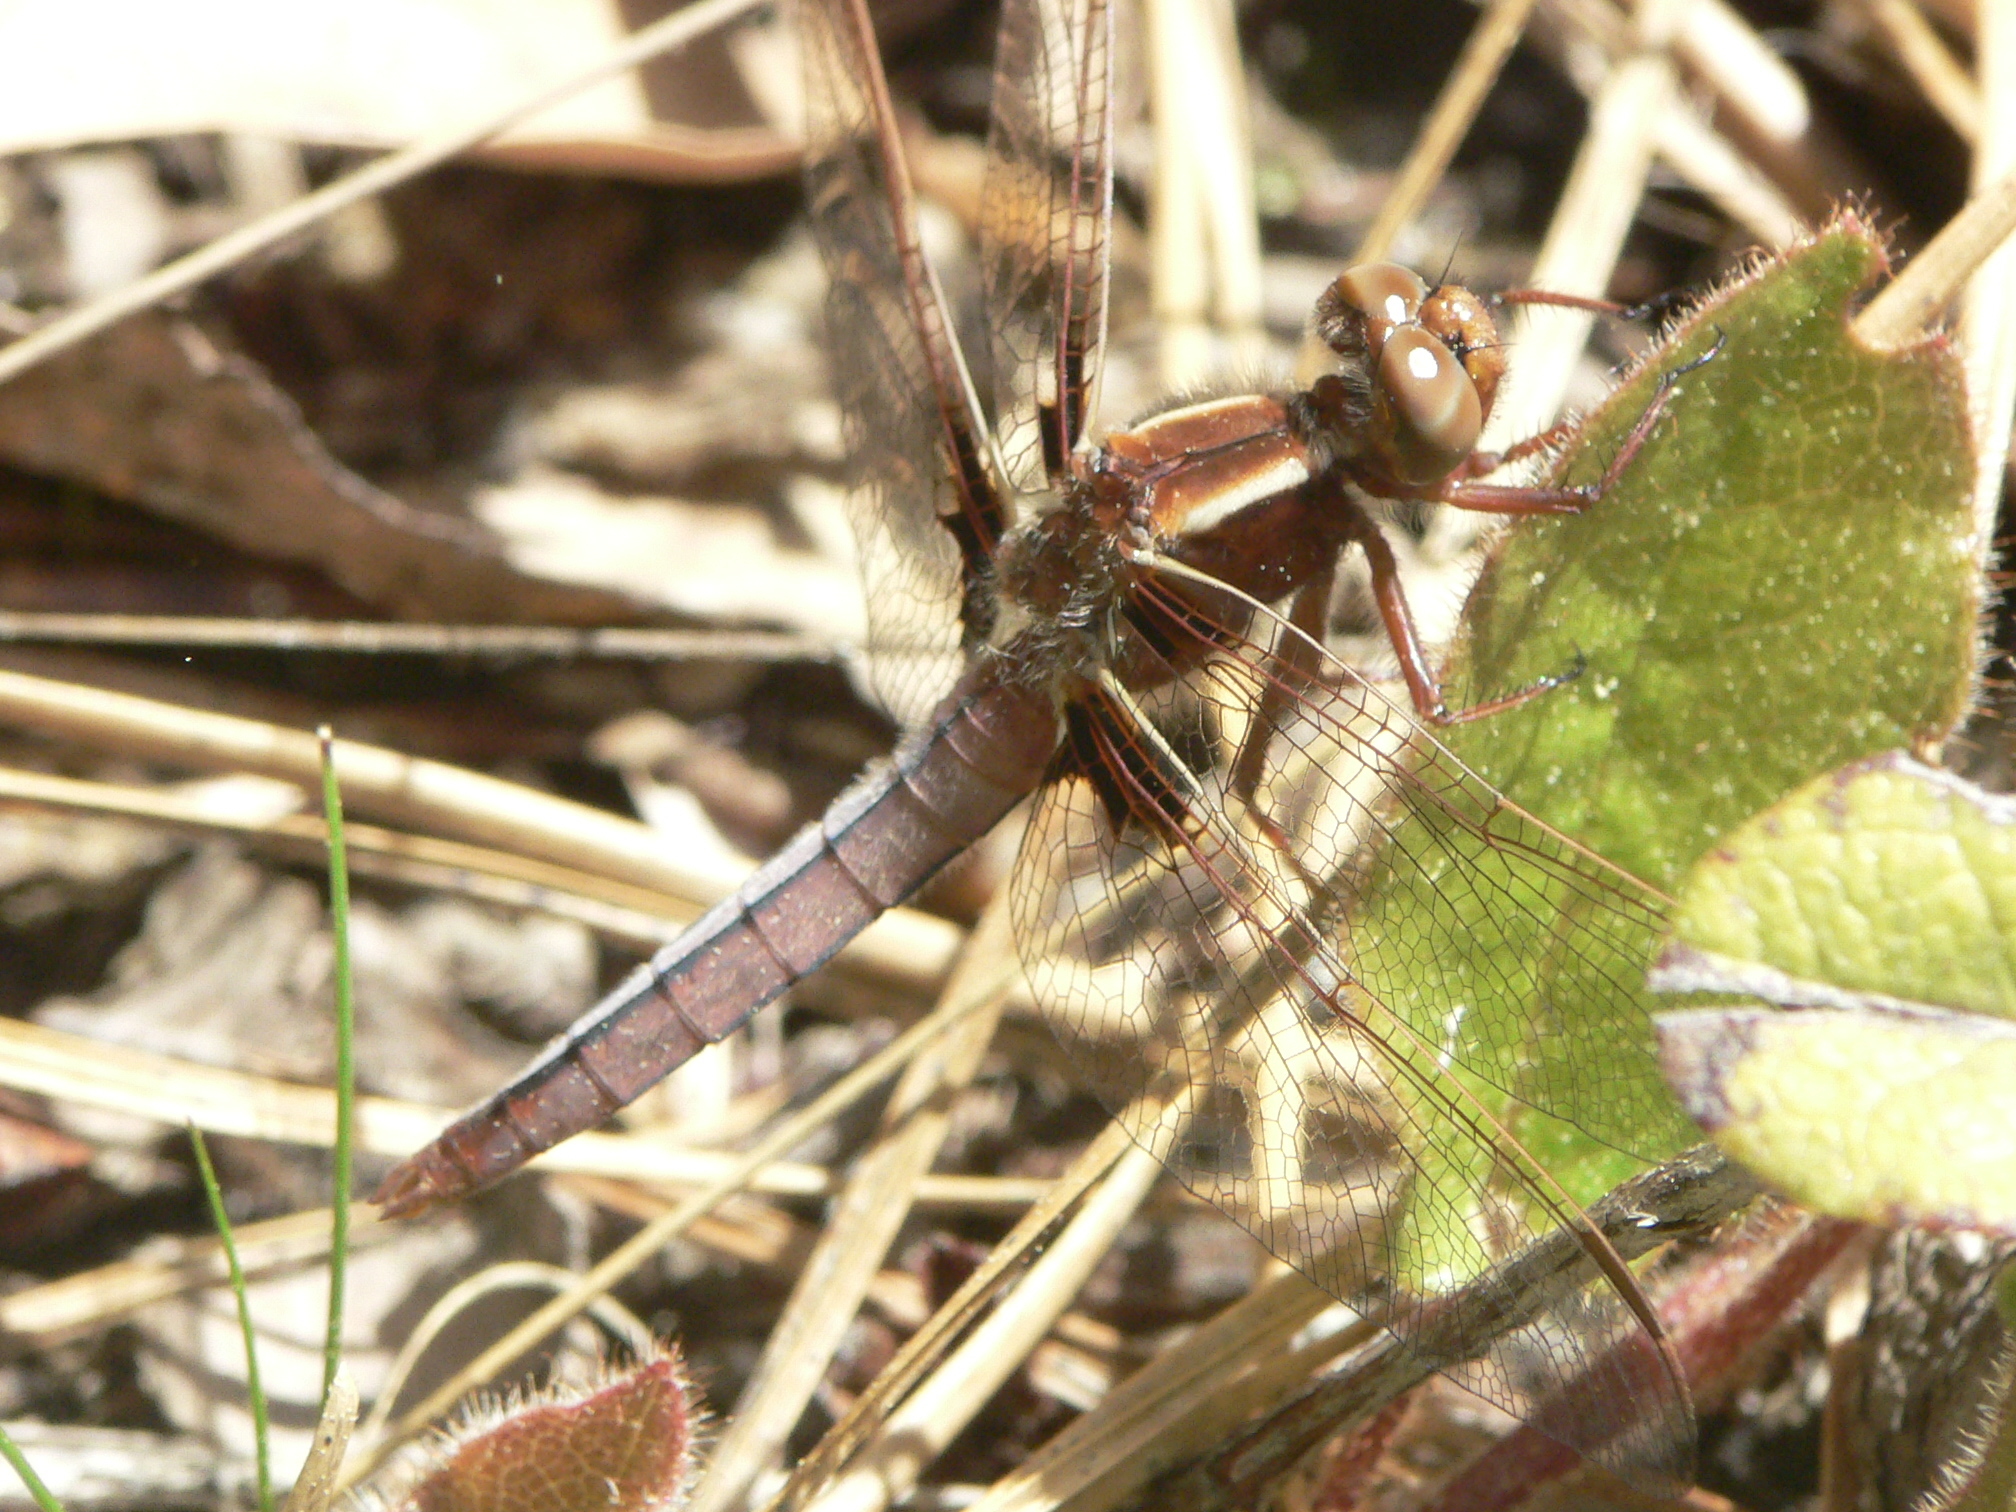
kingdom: Animalia
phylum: Arthropoda
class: Insecta
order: Odonata
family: Libellulidae
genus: Ladona
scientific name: Ladona exusta
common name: Libellule embrasée
